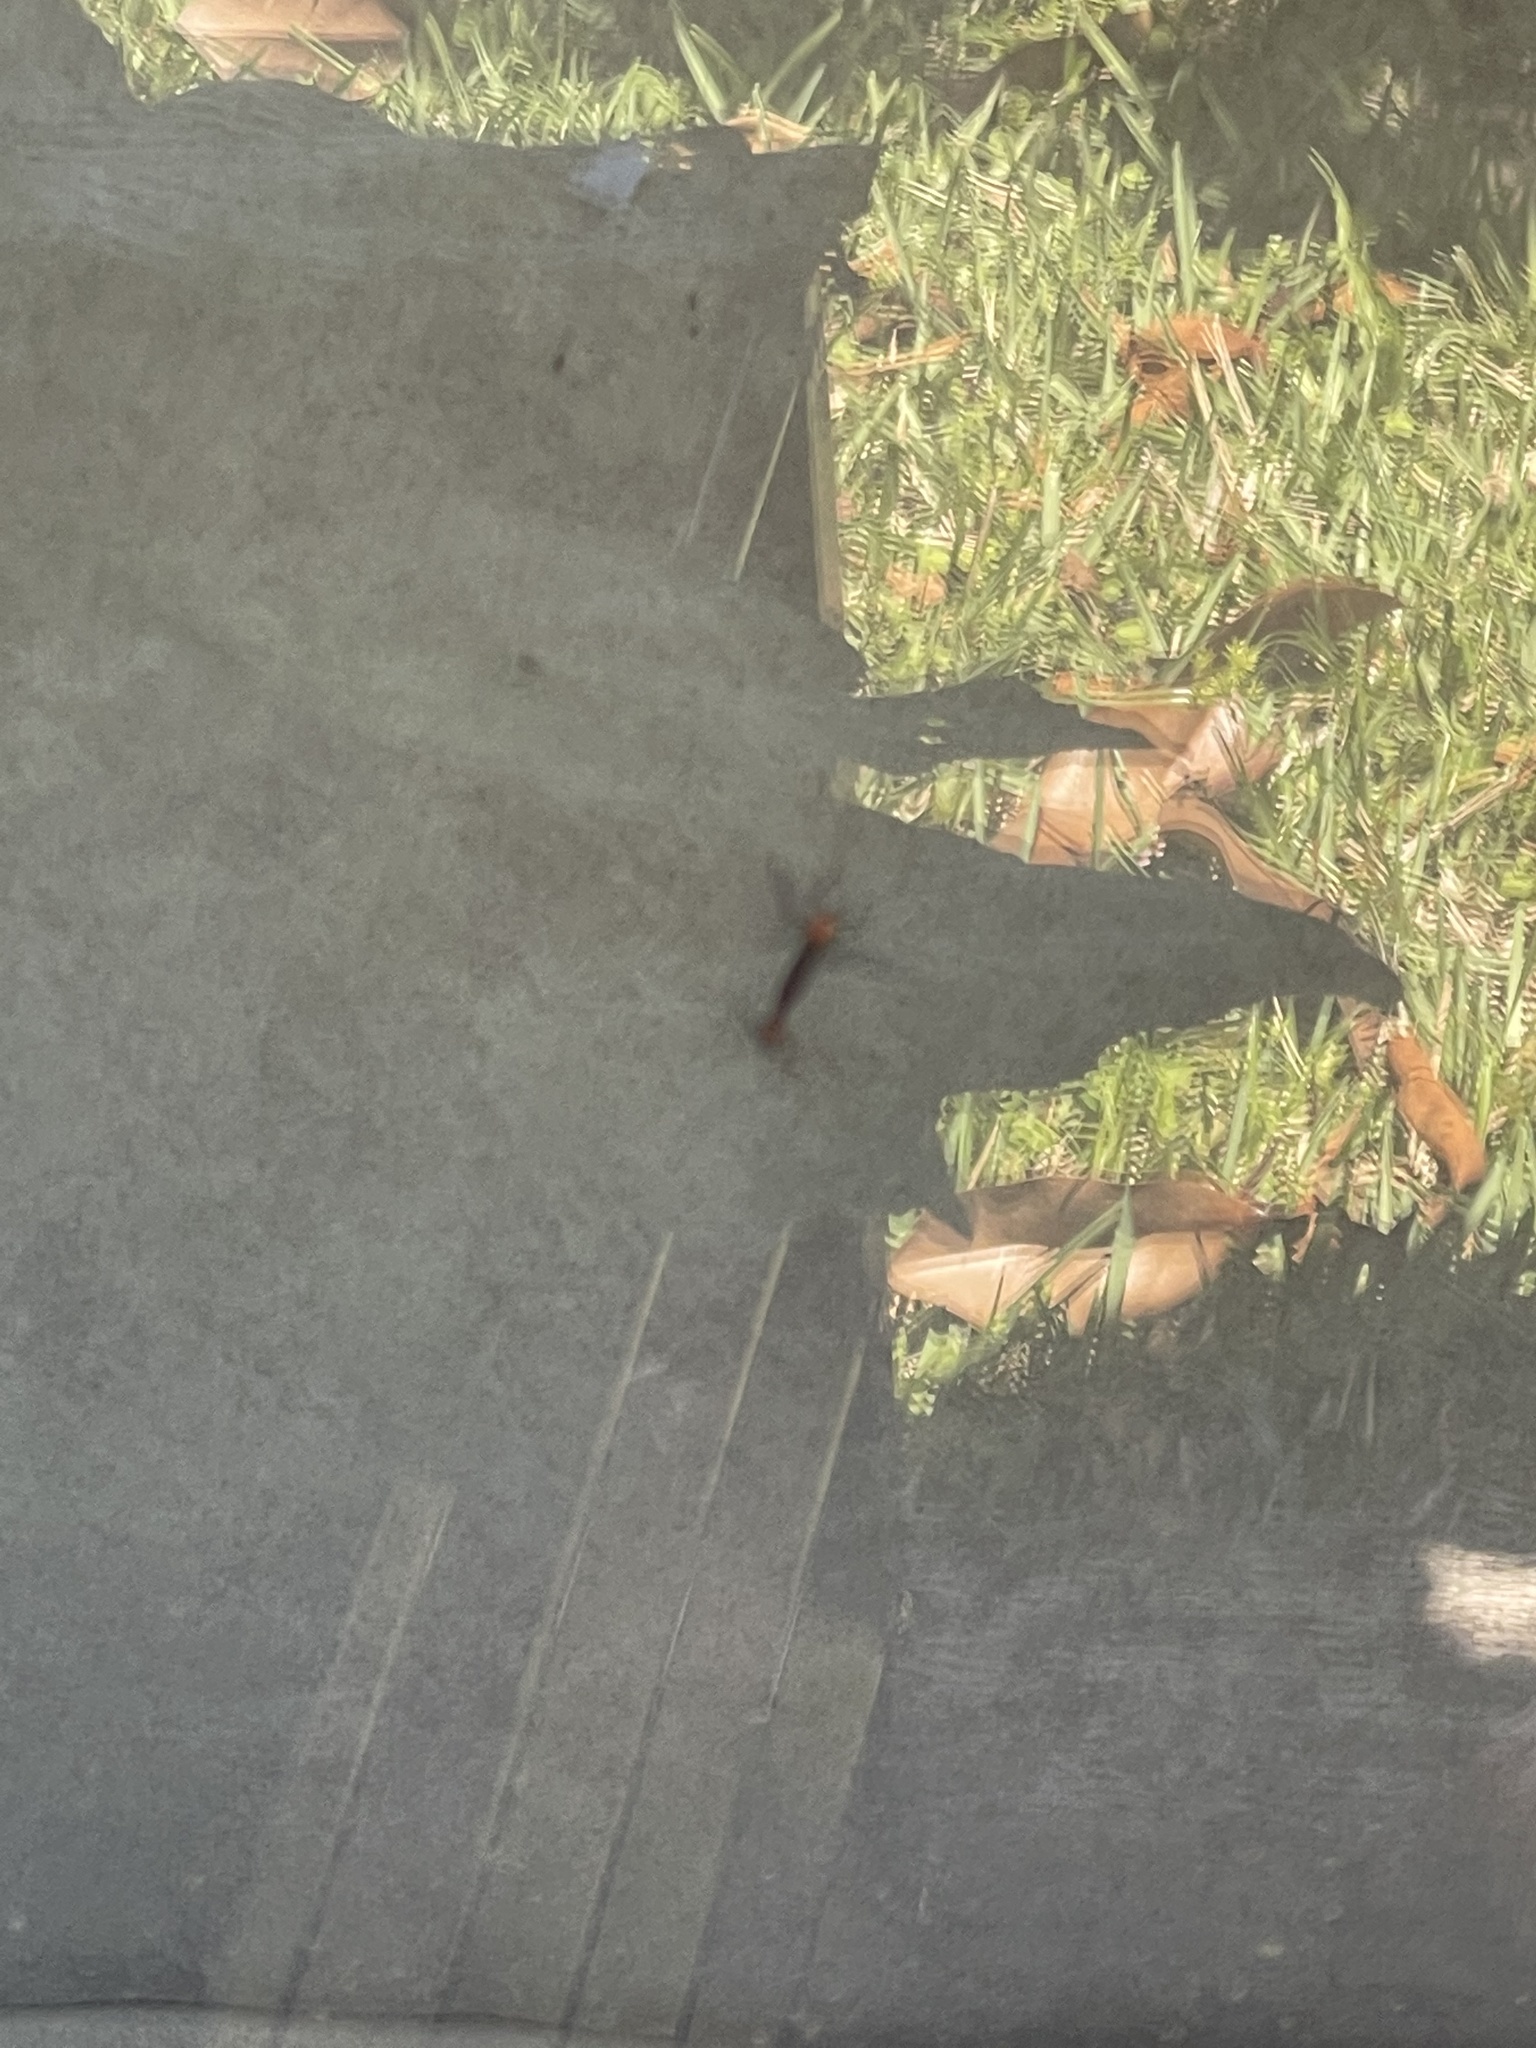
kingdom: Animalia
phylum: Arthropoda
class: Insecta
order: Diptera
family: Bibionidae
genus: Plecia
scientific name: Plecia nearctica
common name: March fly
